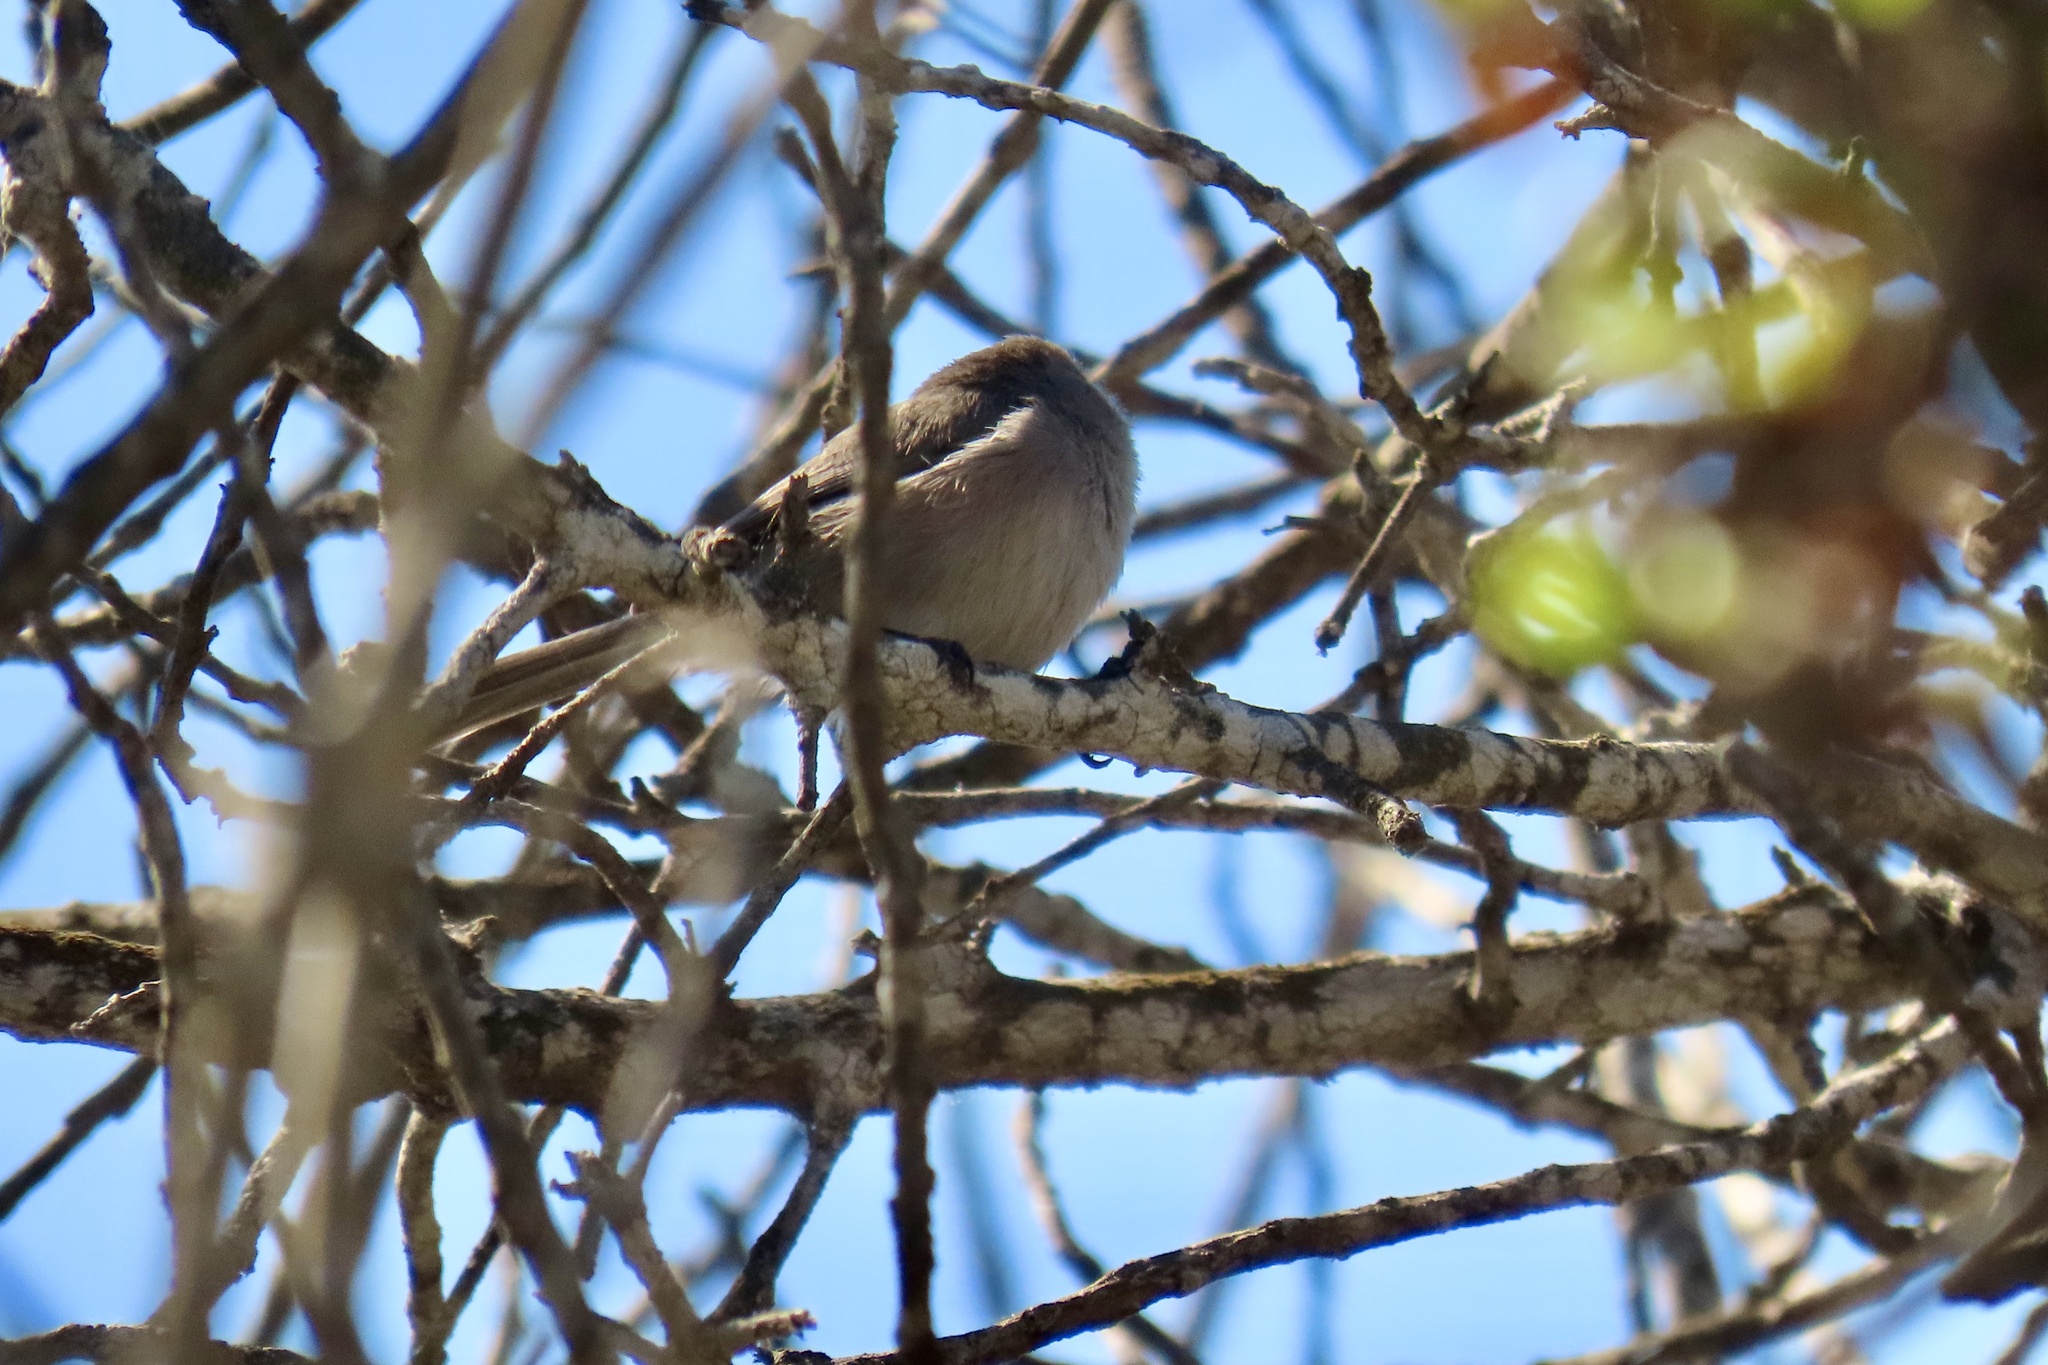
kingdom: Animalia
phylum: Chordata
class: Aves
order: Passeriformes
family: Aegithalidae
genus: Psaltriparus
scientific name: Psaltriparus minimus
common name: American bushtit
